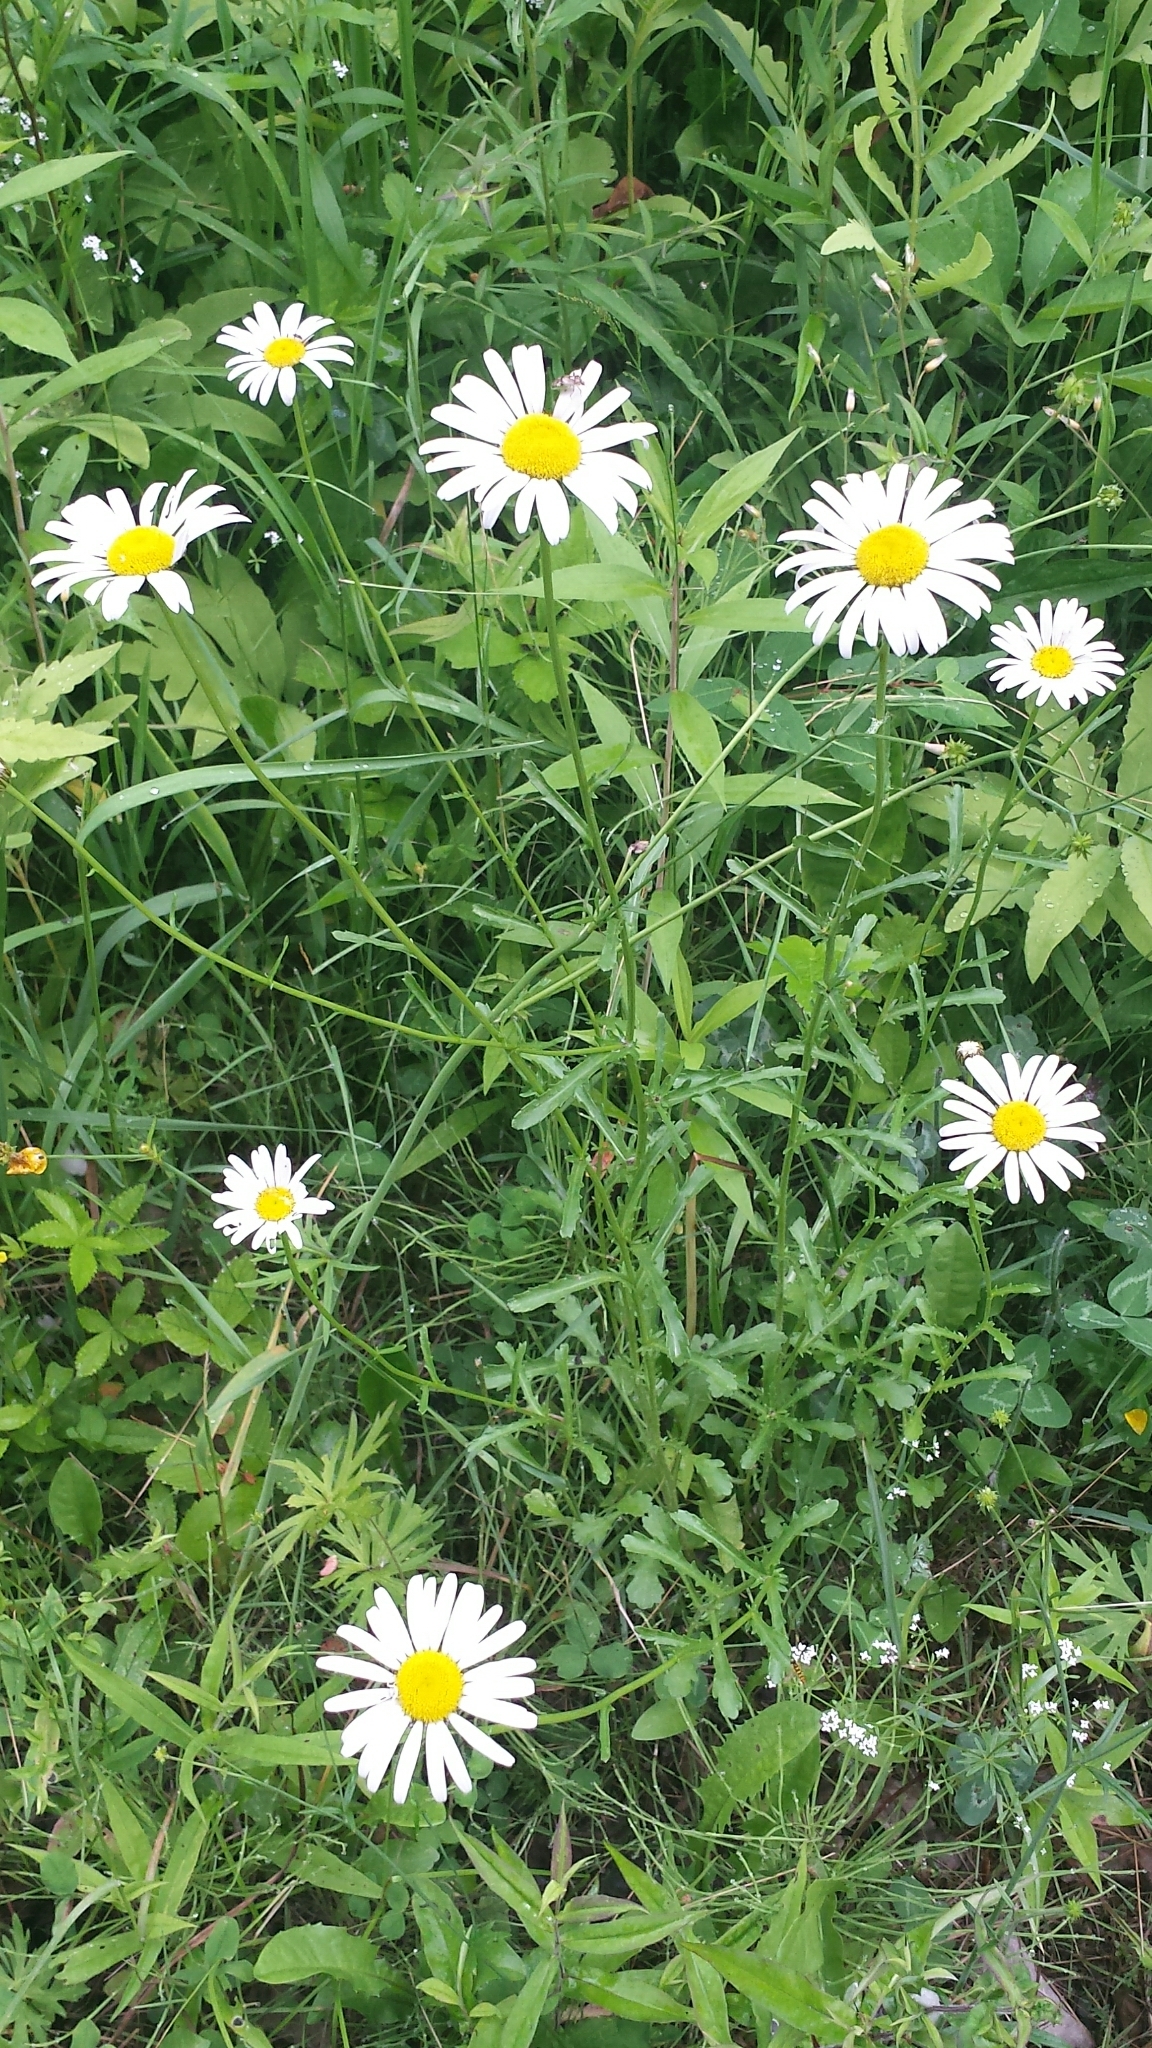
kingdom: Plantae
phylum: Tracheophyta
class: Magnoliopsida
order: Asterales
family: Asteraceae
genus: Leucanthemum
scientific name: Leucanthemum vulgare
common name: Oxeye daisy
